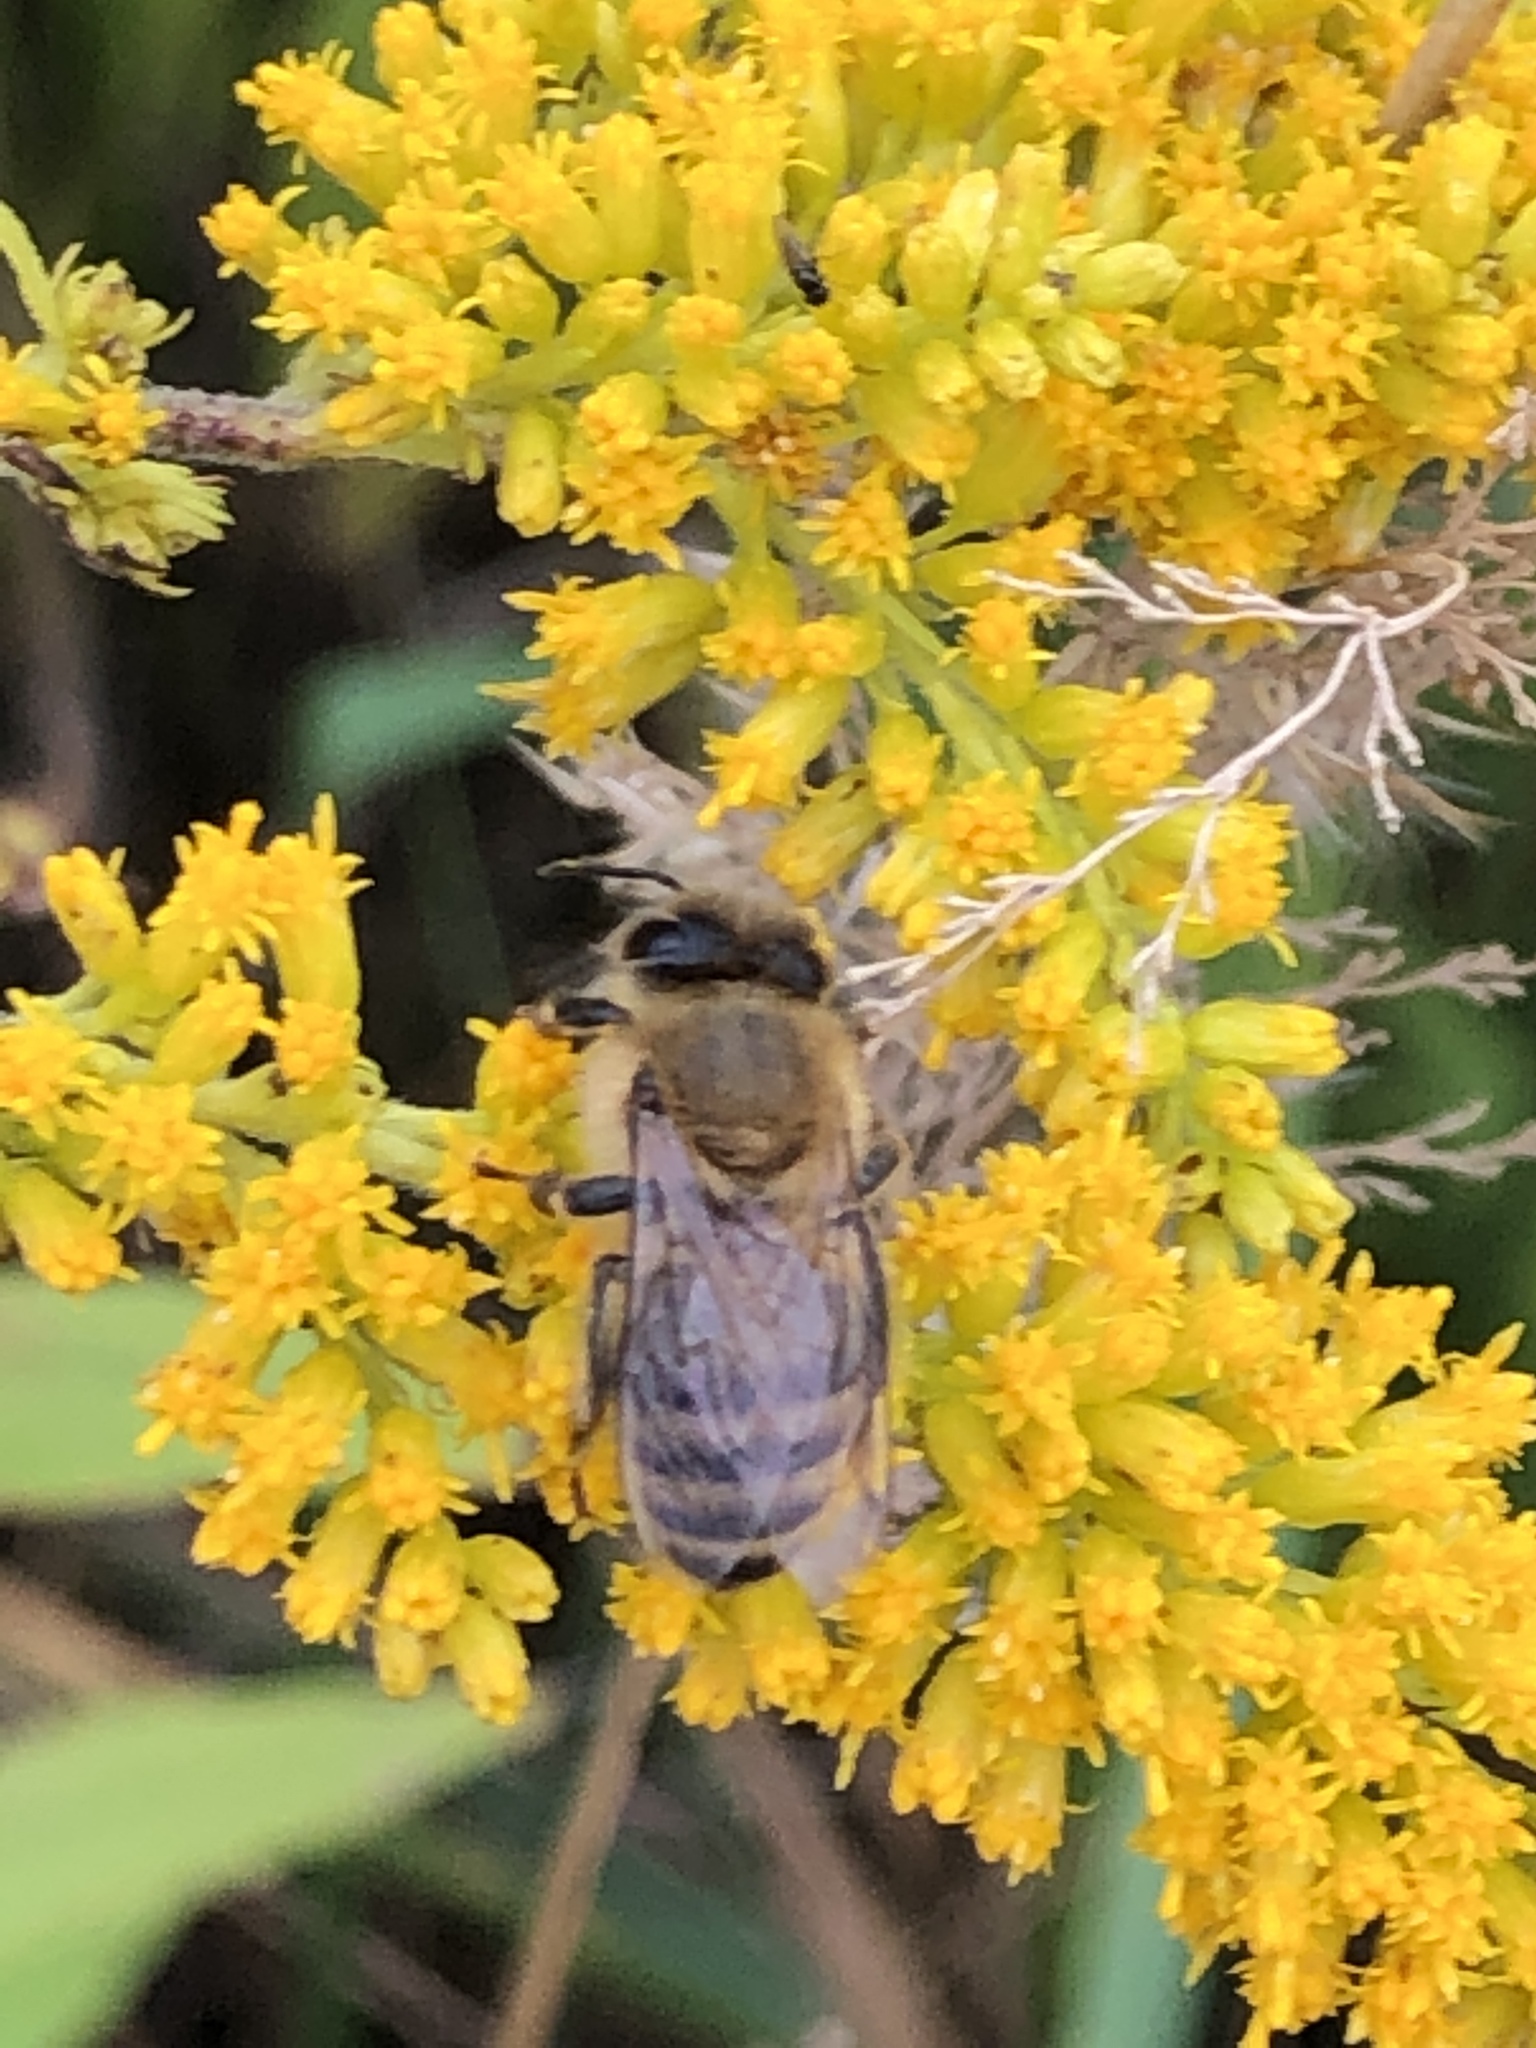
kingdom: Animalia
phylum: Arthropoda
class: Insecta
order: Hymenoptera
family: Apidae
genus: Apis
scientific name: Apis mellifera
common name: Honey bee
